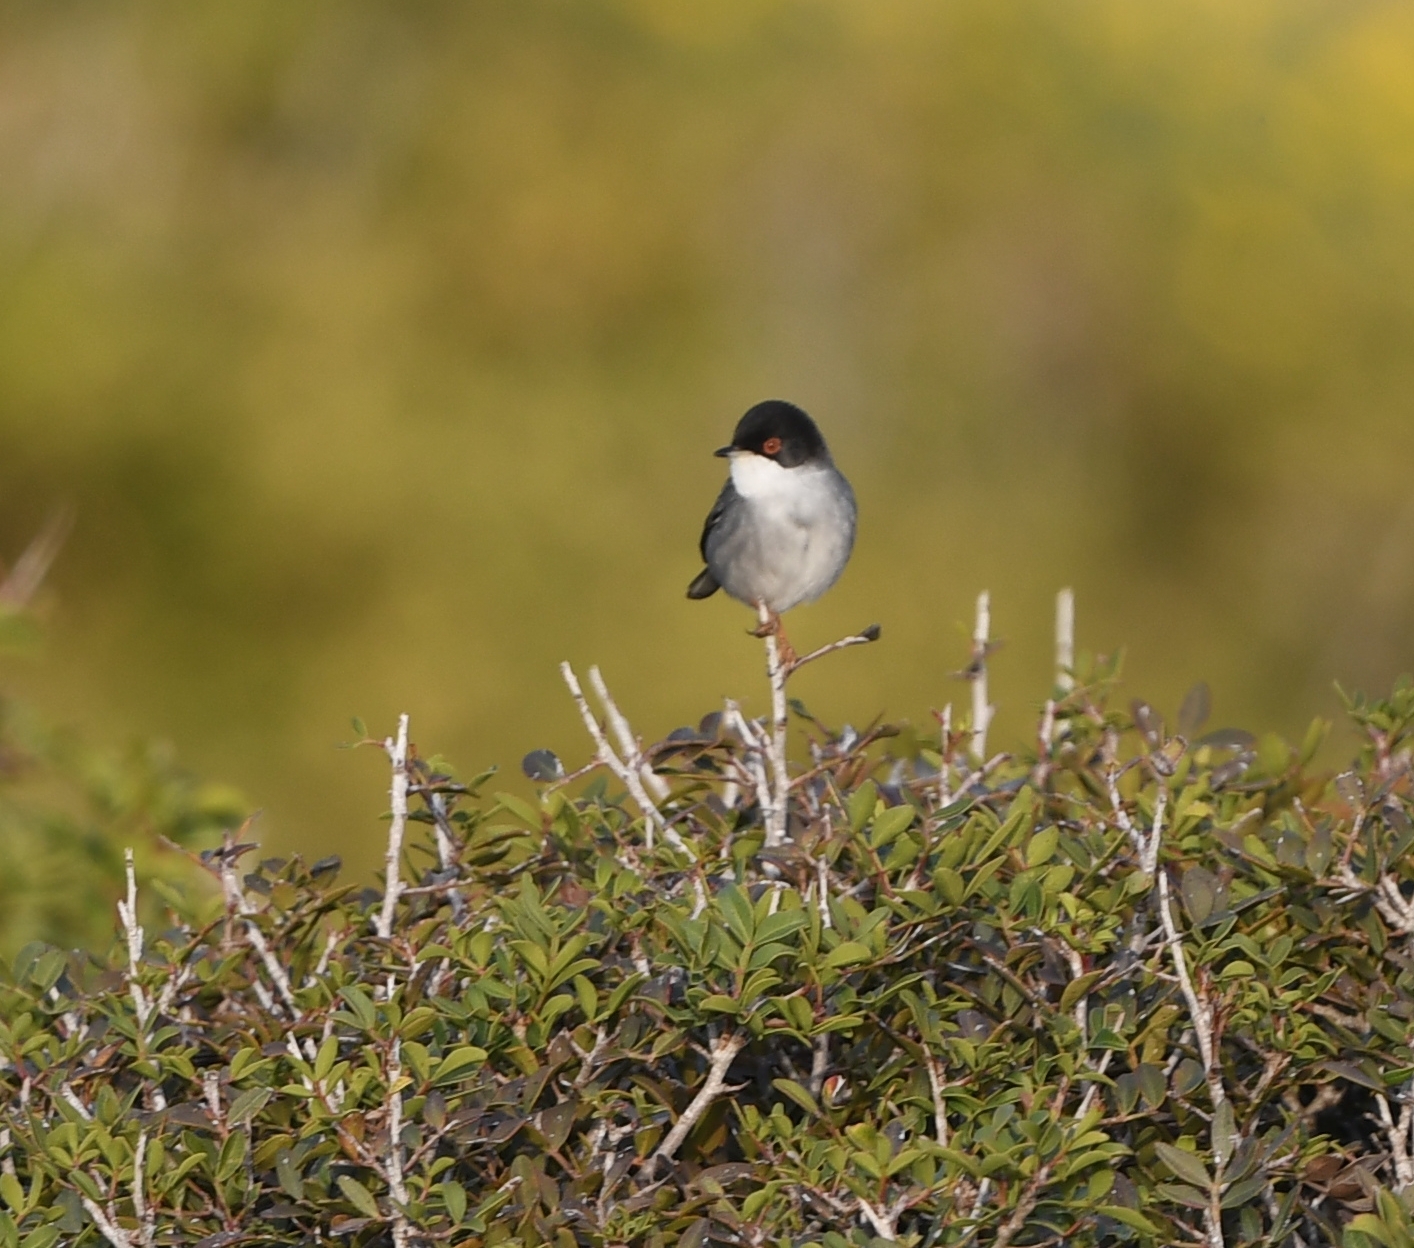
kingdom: Animalia
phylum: Chordata
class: Aves
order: Passeriformes
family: Sylviidae
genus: Curruca
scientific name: Curruca melanocephala
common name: Sardinian warbler
